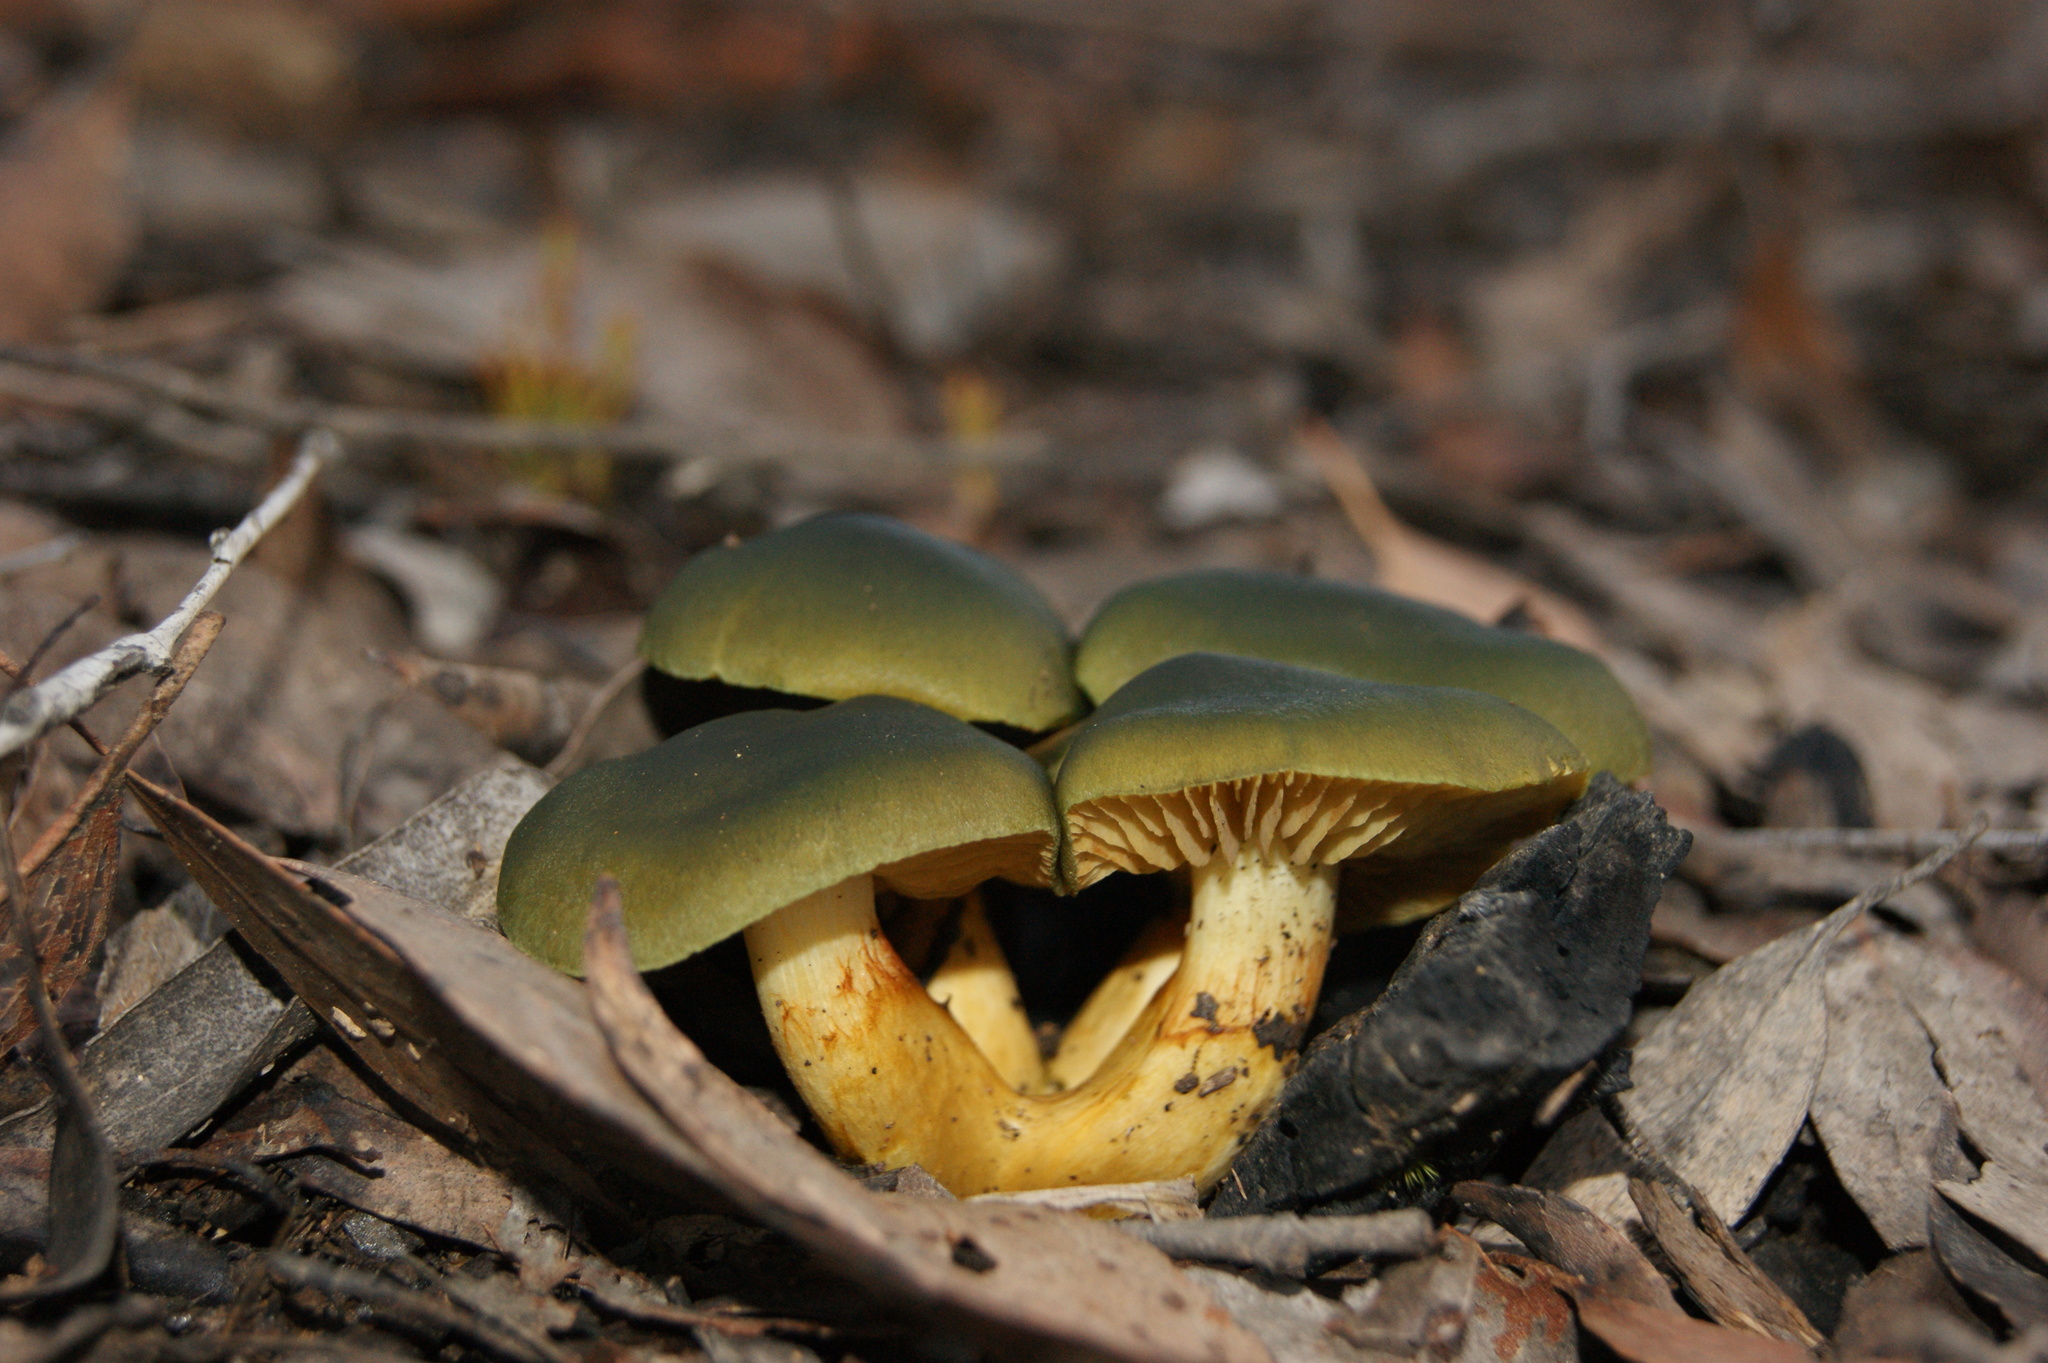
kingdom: Fungi
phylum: Basidiomycota
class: Agaricomycetes
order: Agaricales
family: Cortinariaceae
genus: Cortinarius
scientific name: Cortinarius austrovenetus
